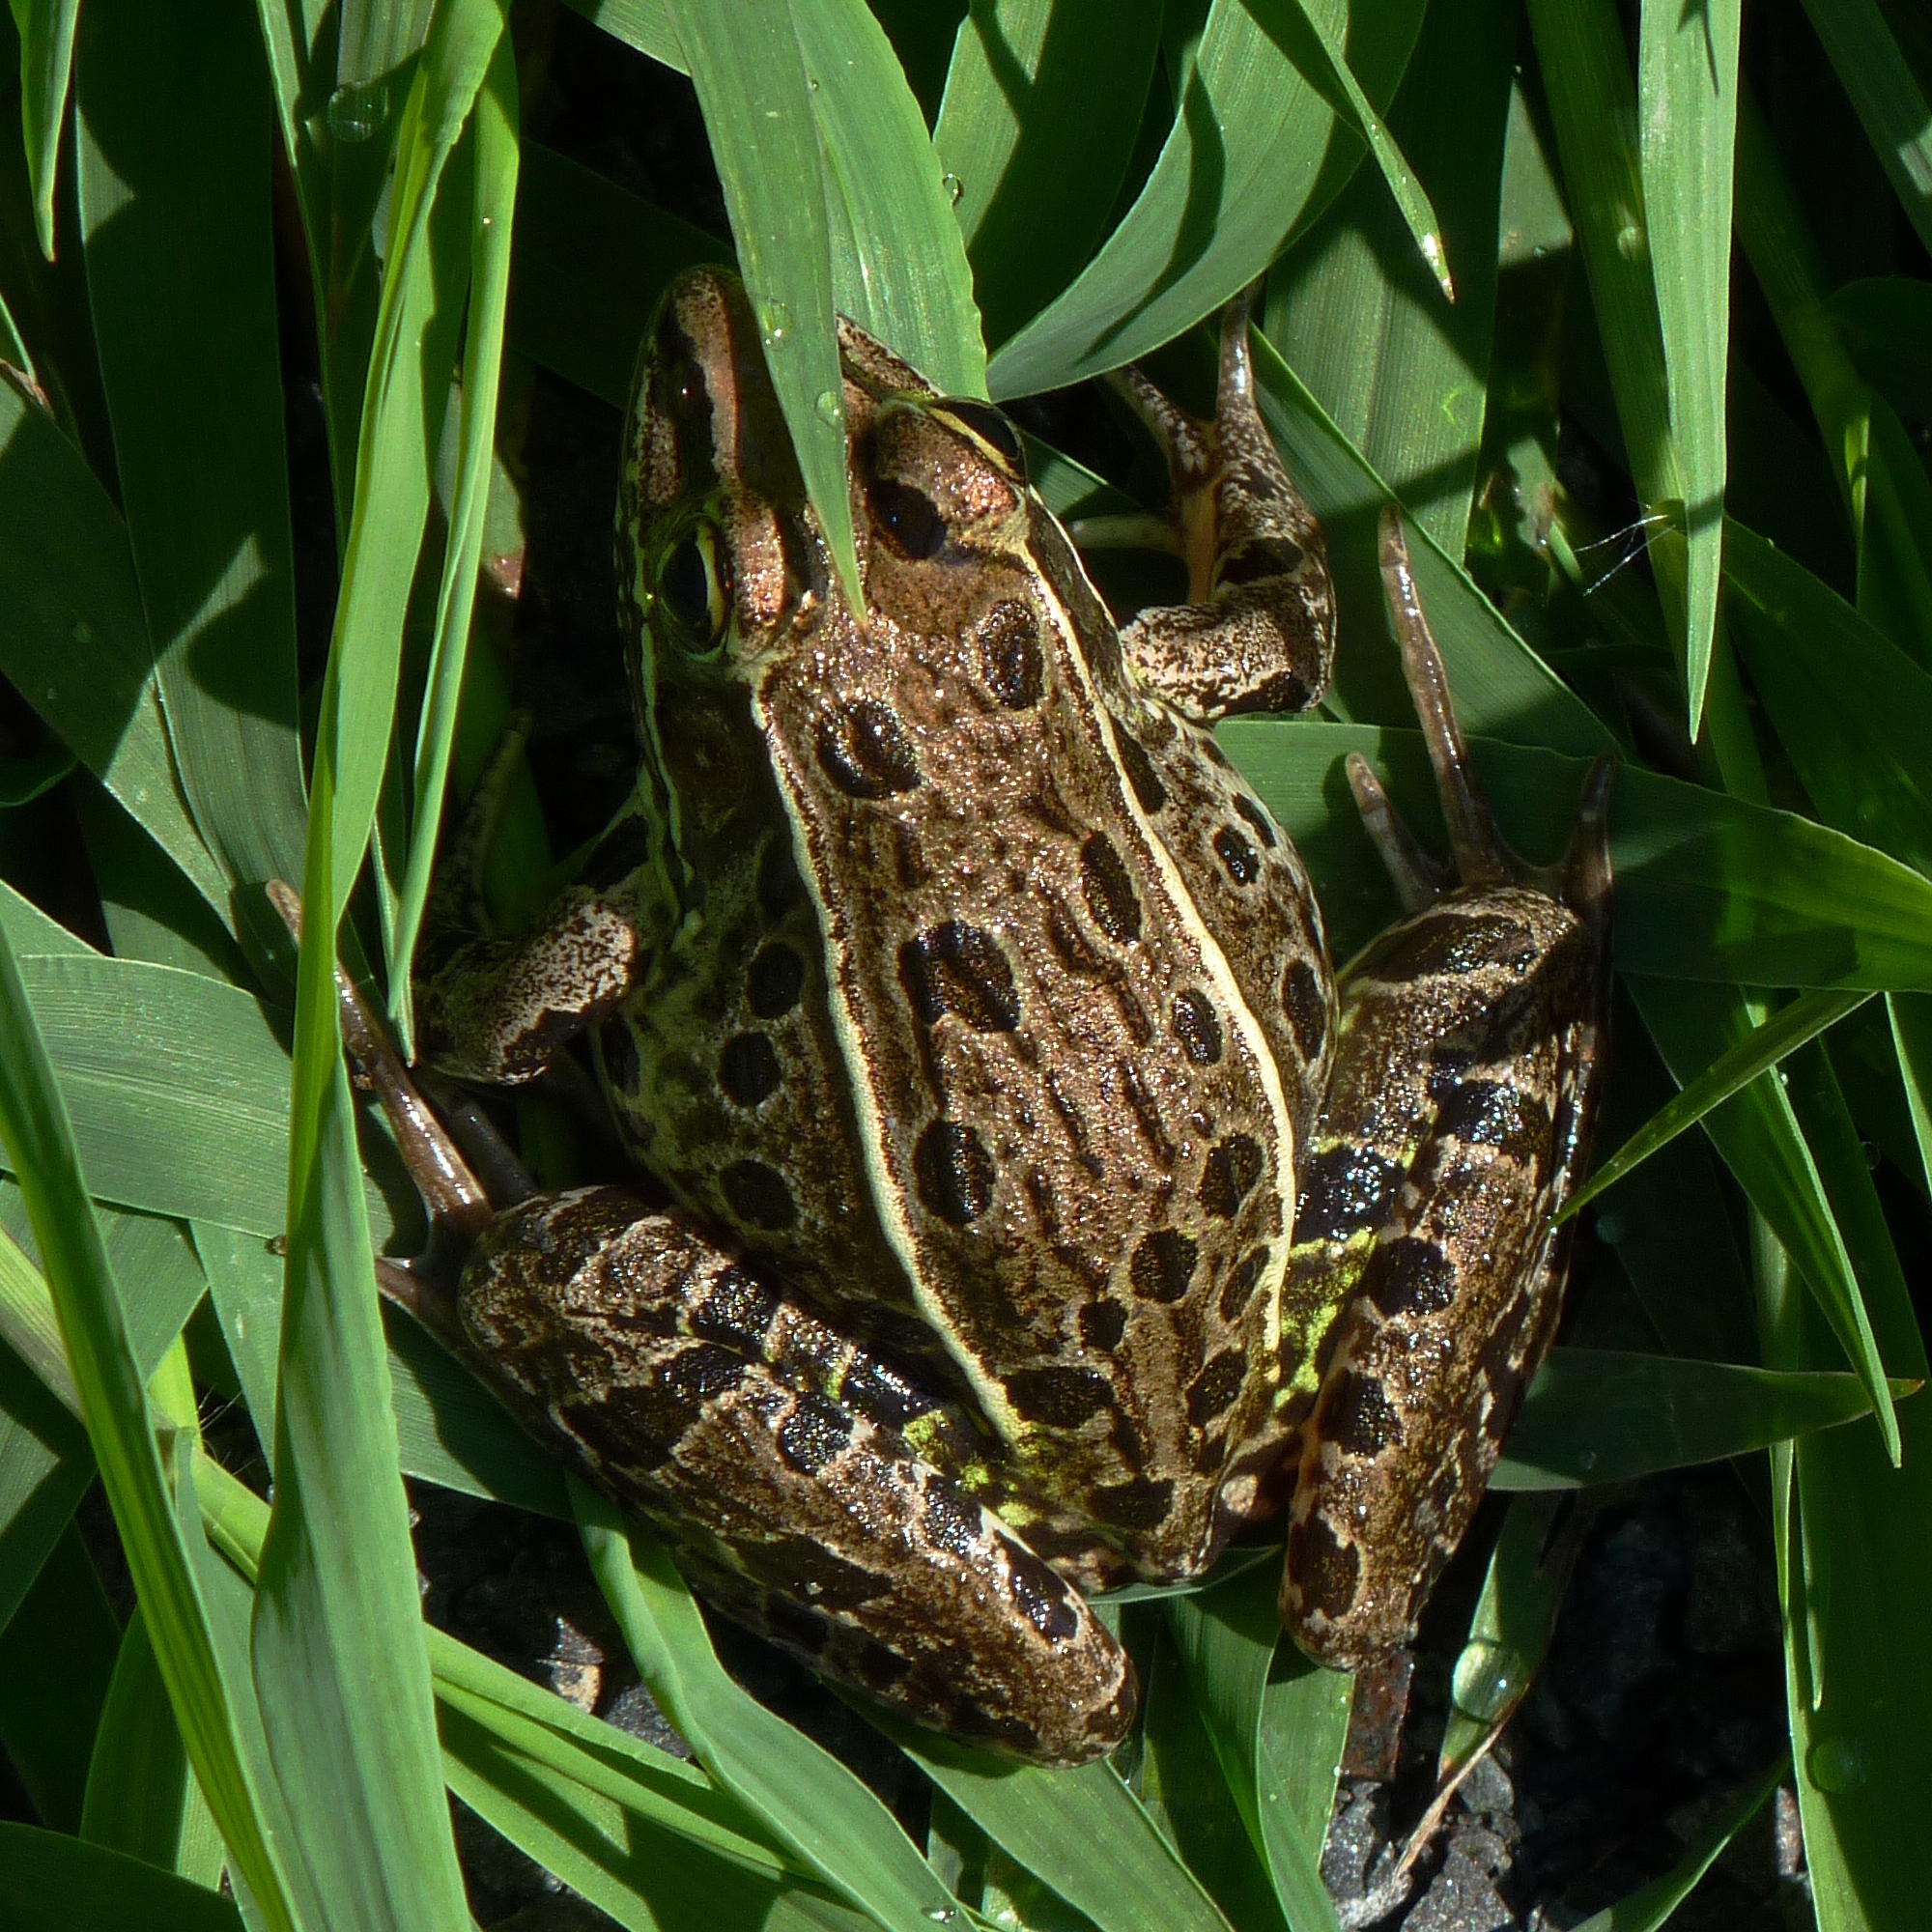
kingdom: Animalia
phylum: Chordata
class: Amphibia
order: Anura
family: Ranidae
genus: Lithobates
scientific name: Lithobates kauffeldi
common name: Mid-atlantic coast leopard frog
